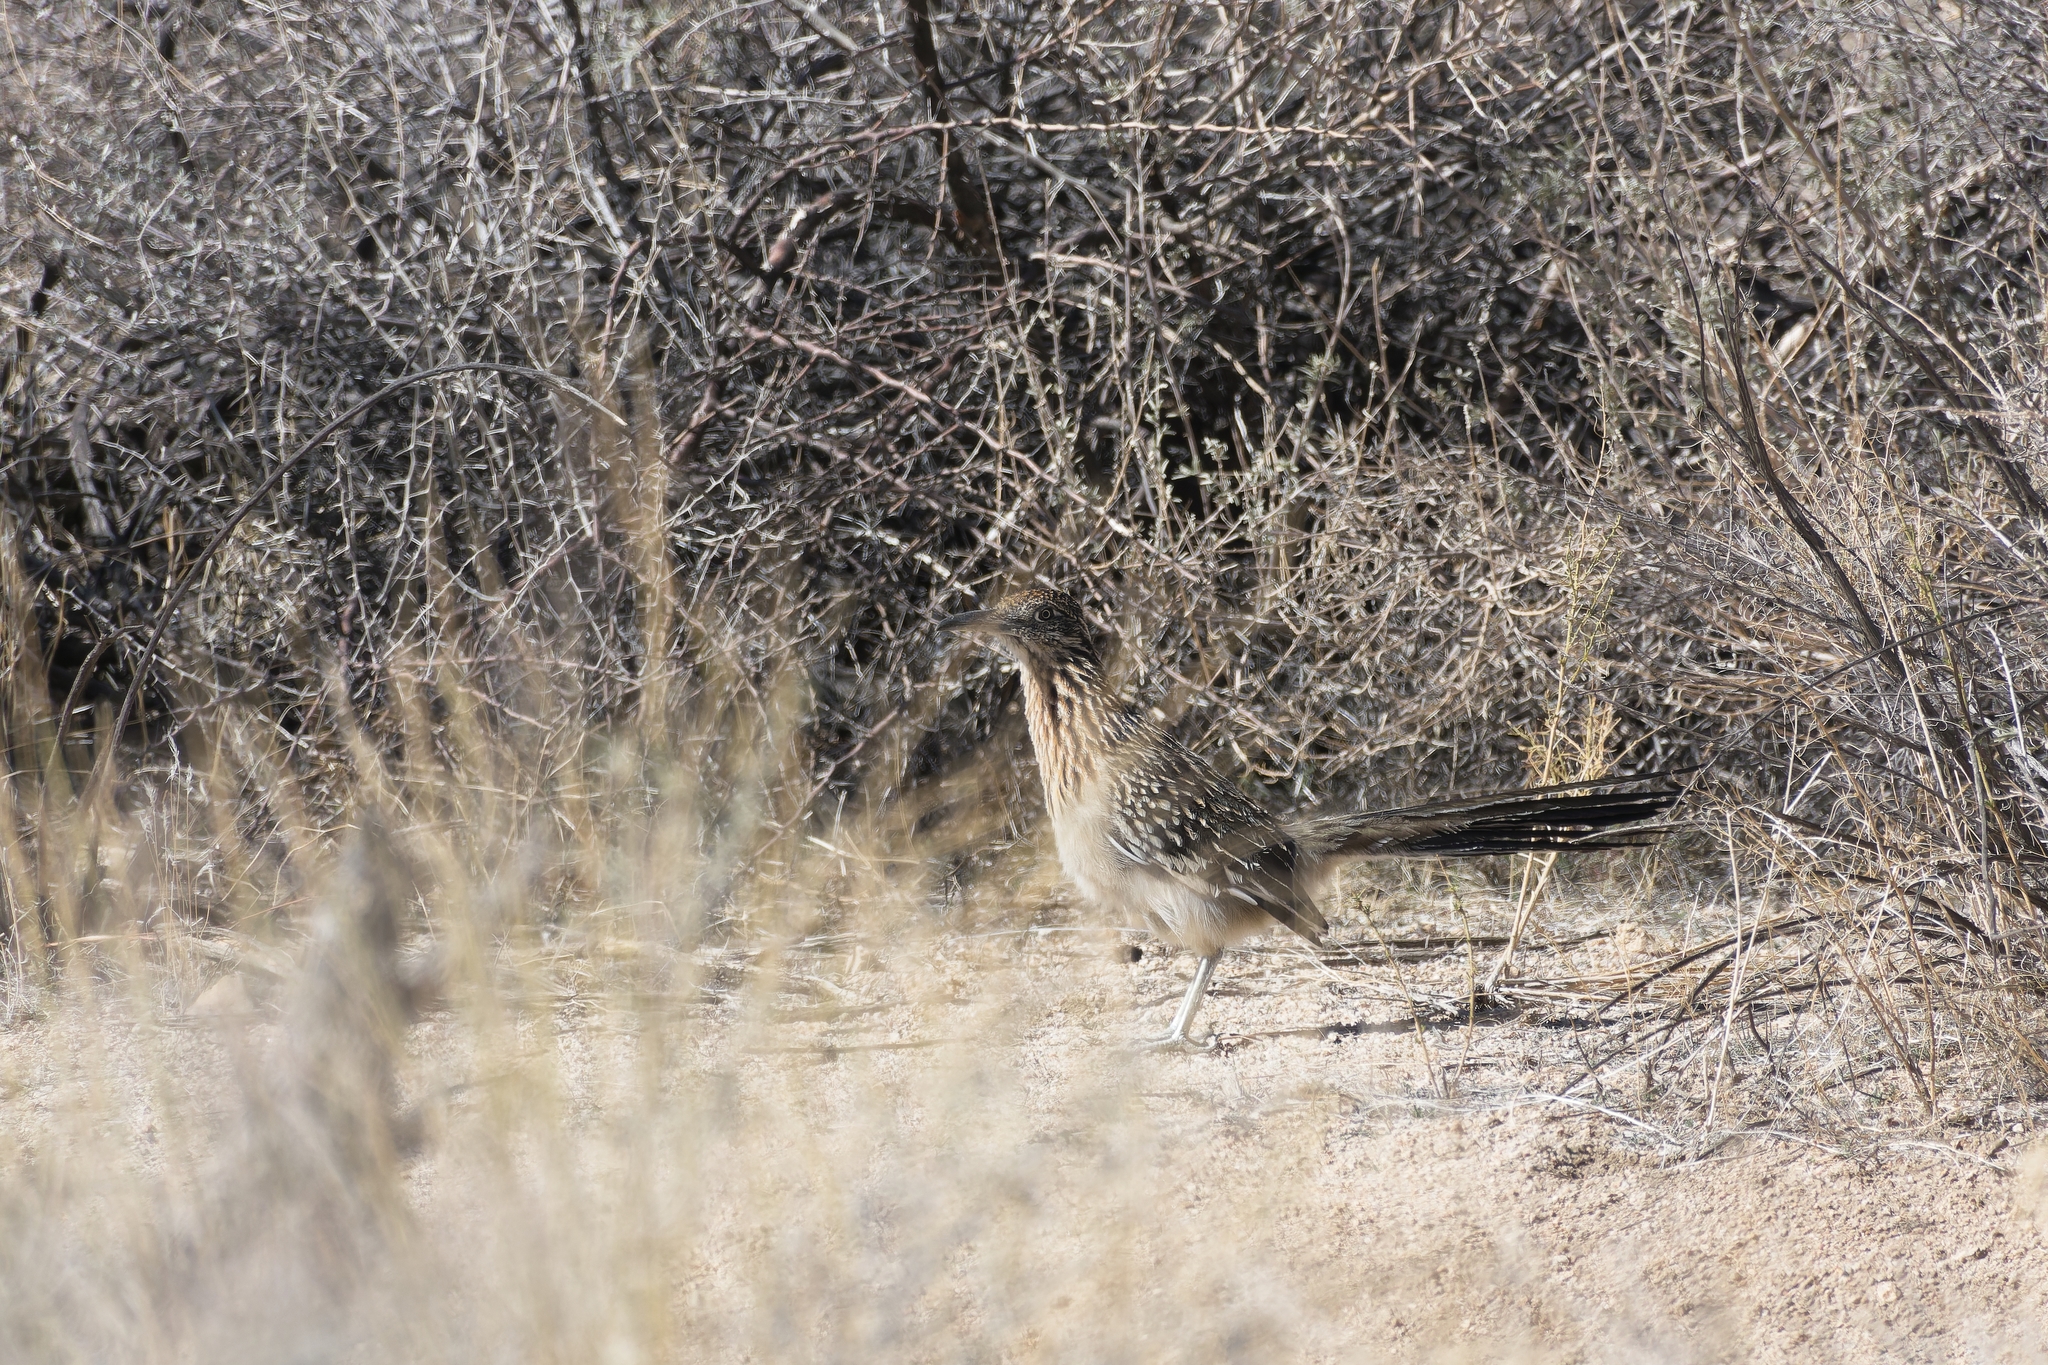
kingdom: Animalia
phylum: Chordata
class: Aves
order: Cuculiformes
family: Cuculidae
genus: Geococcyx
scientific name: Geococcyx californianus
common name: Greater roadrunner
